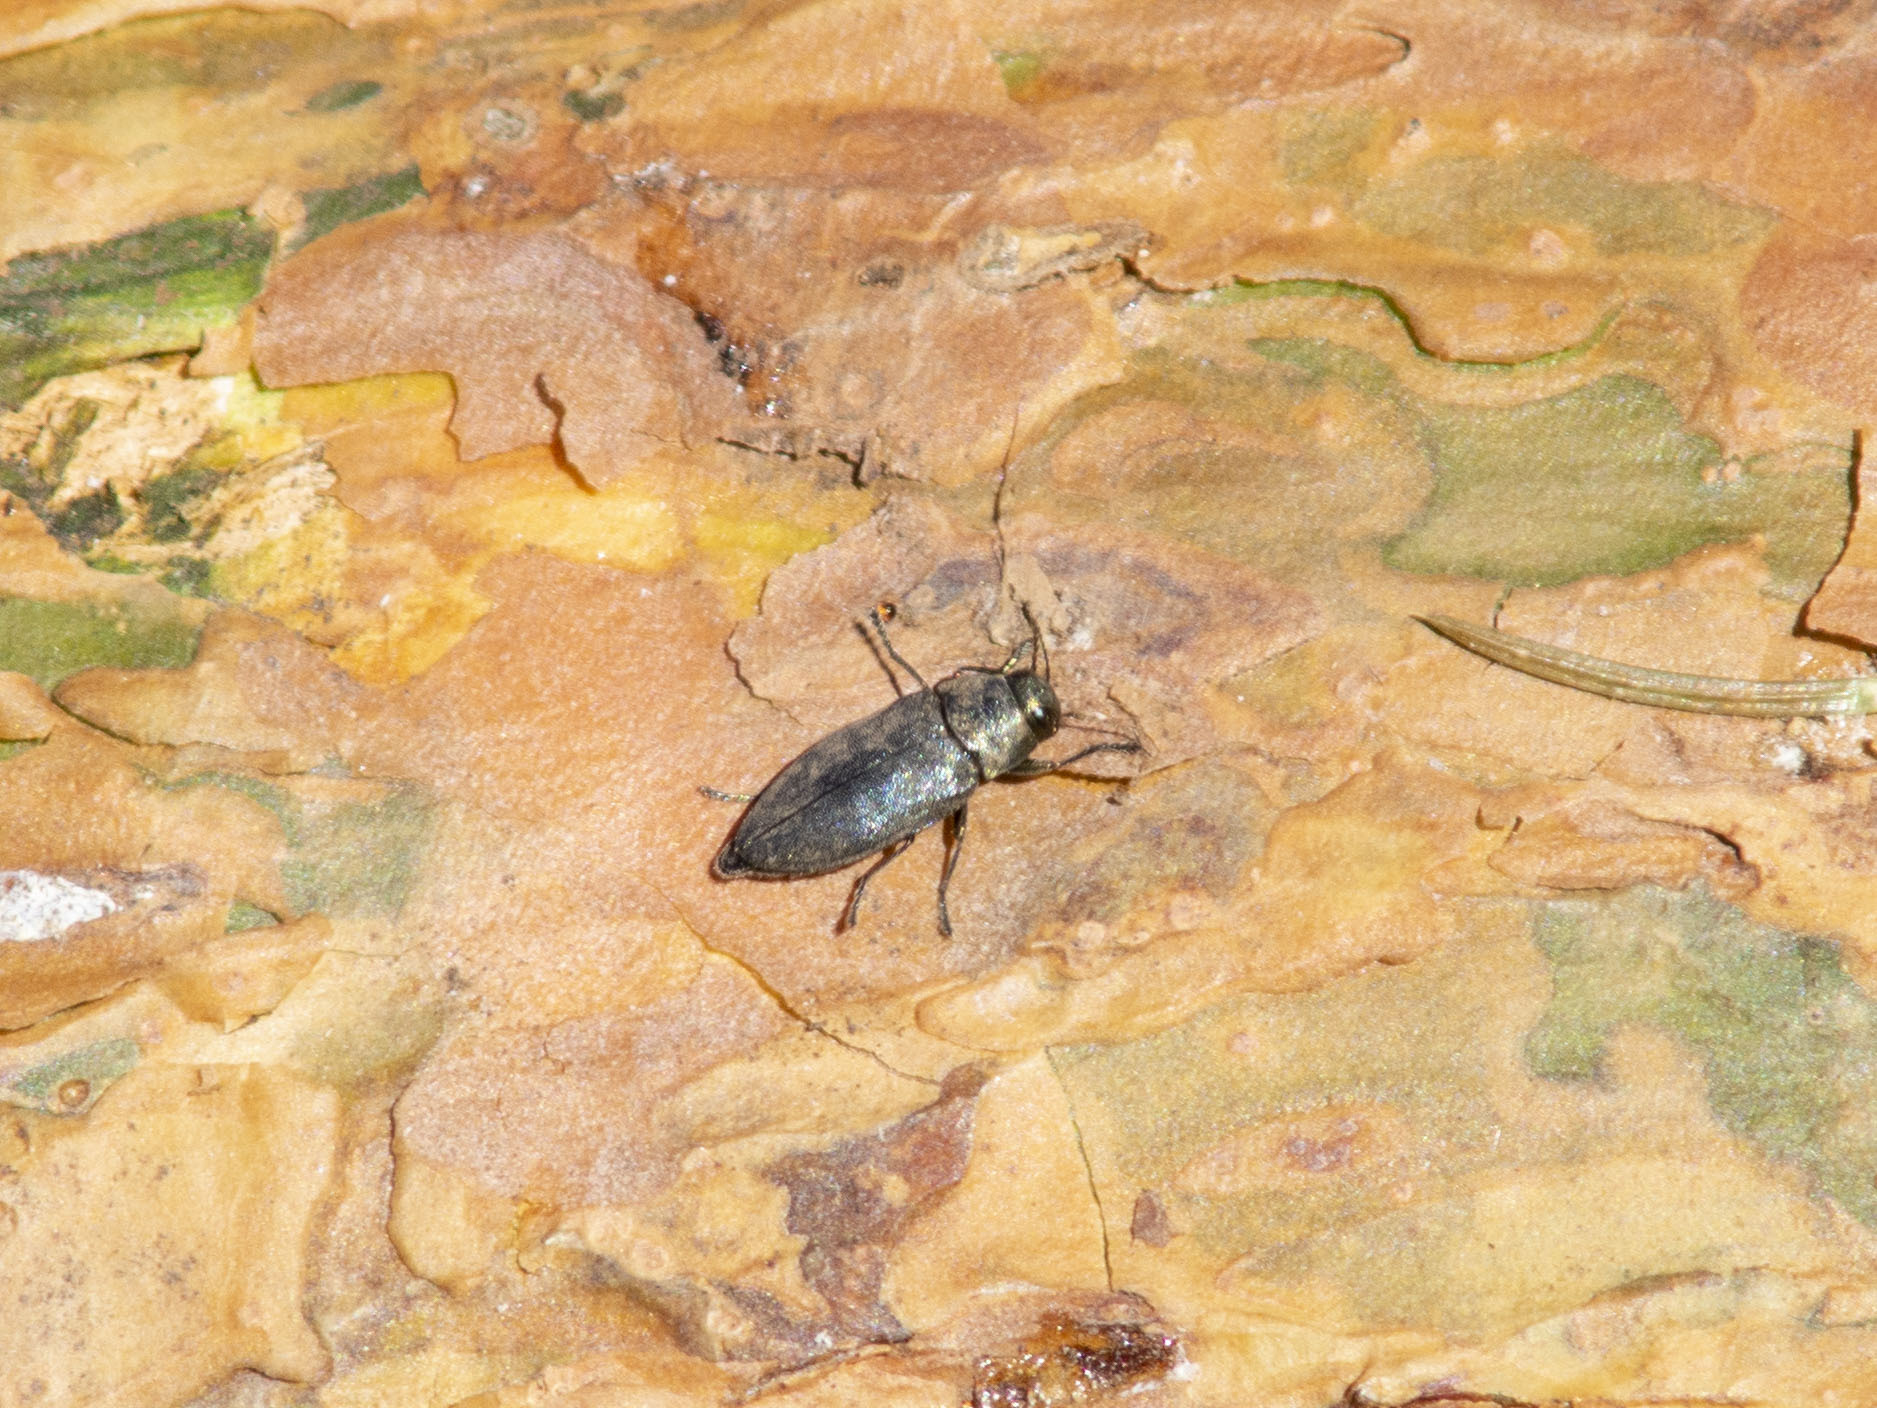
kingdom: Animalia
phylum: Arthropoda
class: Insecta
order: Coleoptera
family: Buprestidae
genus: Phaenops
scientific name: Phaenops cyanea
